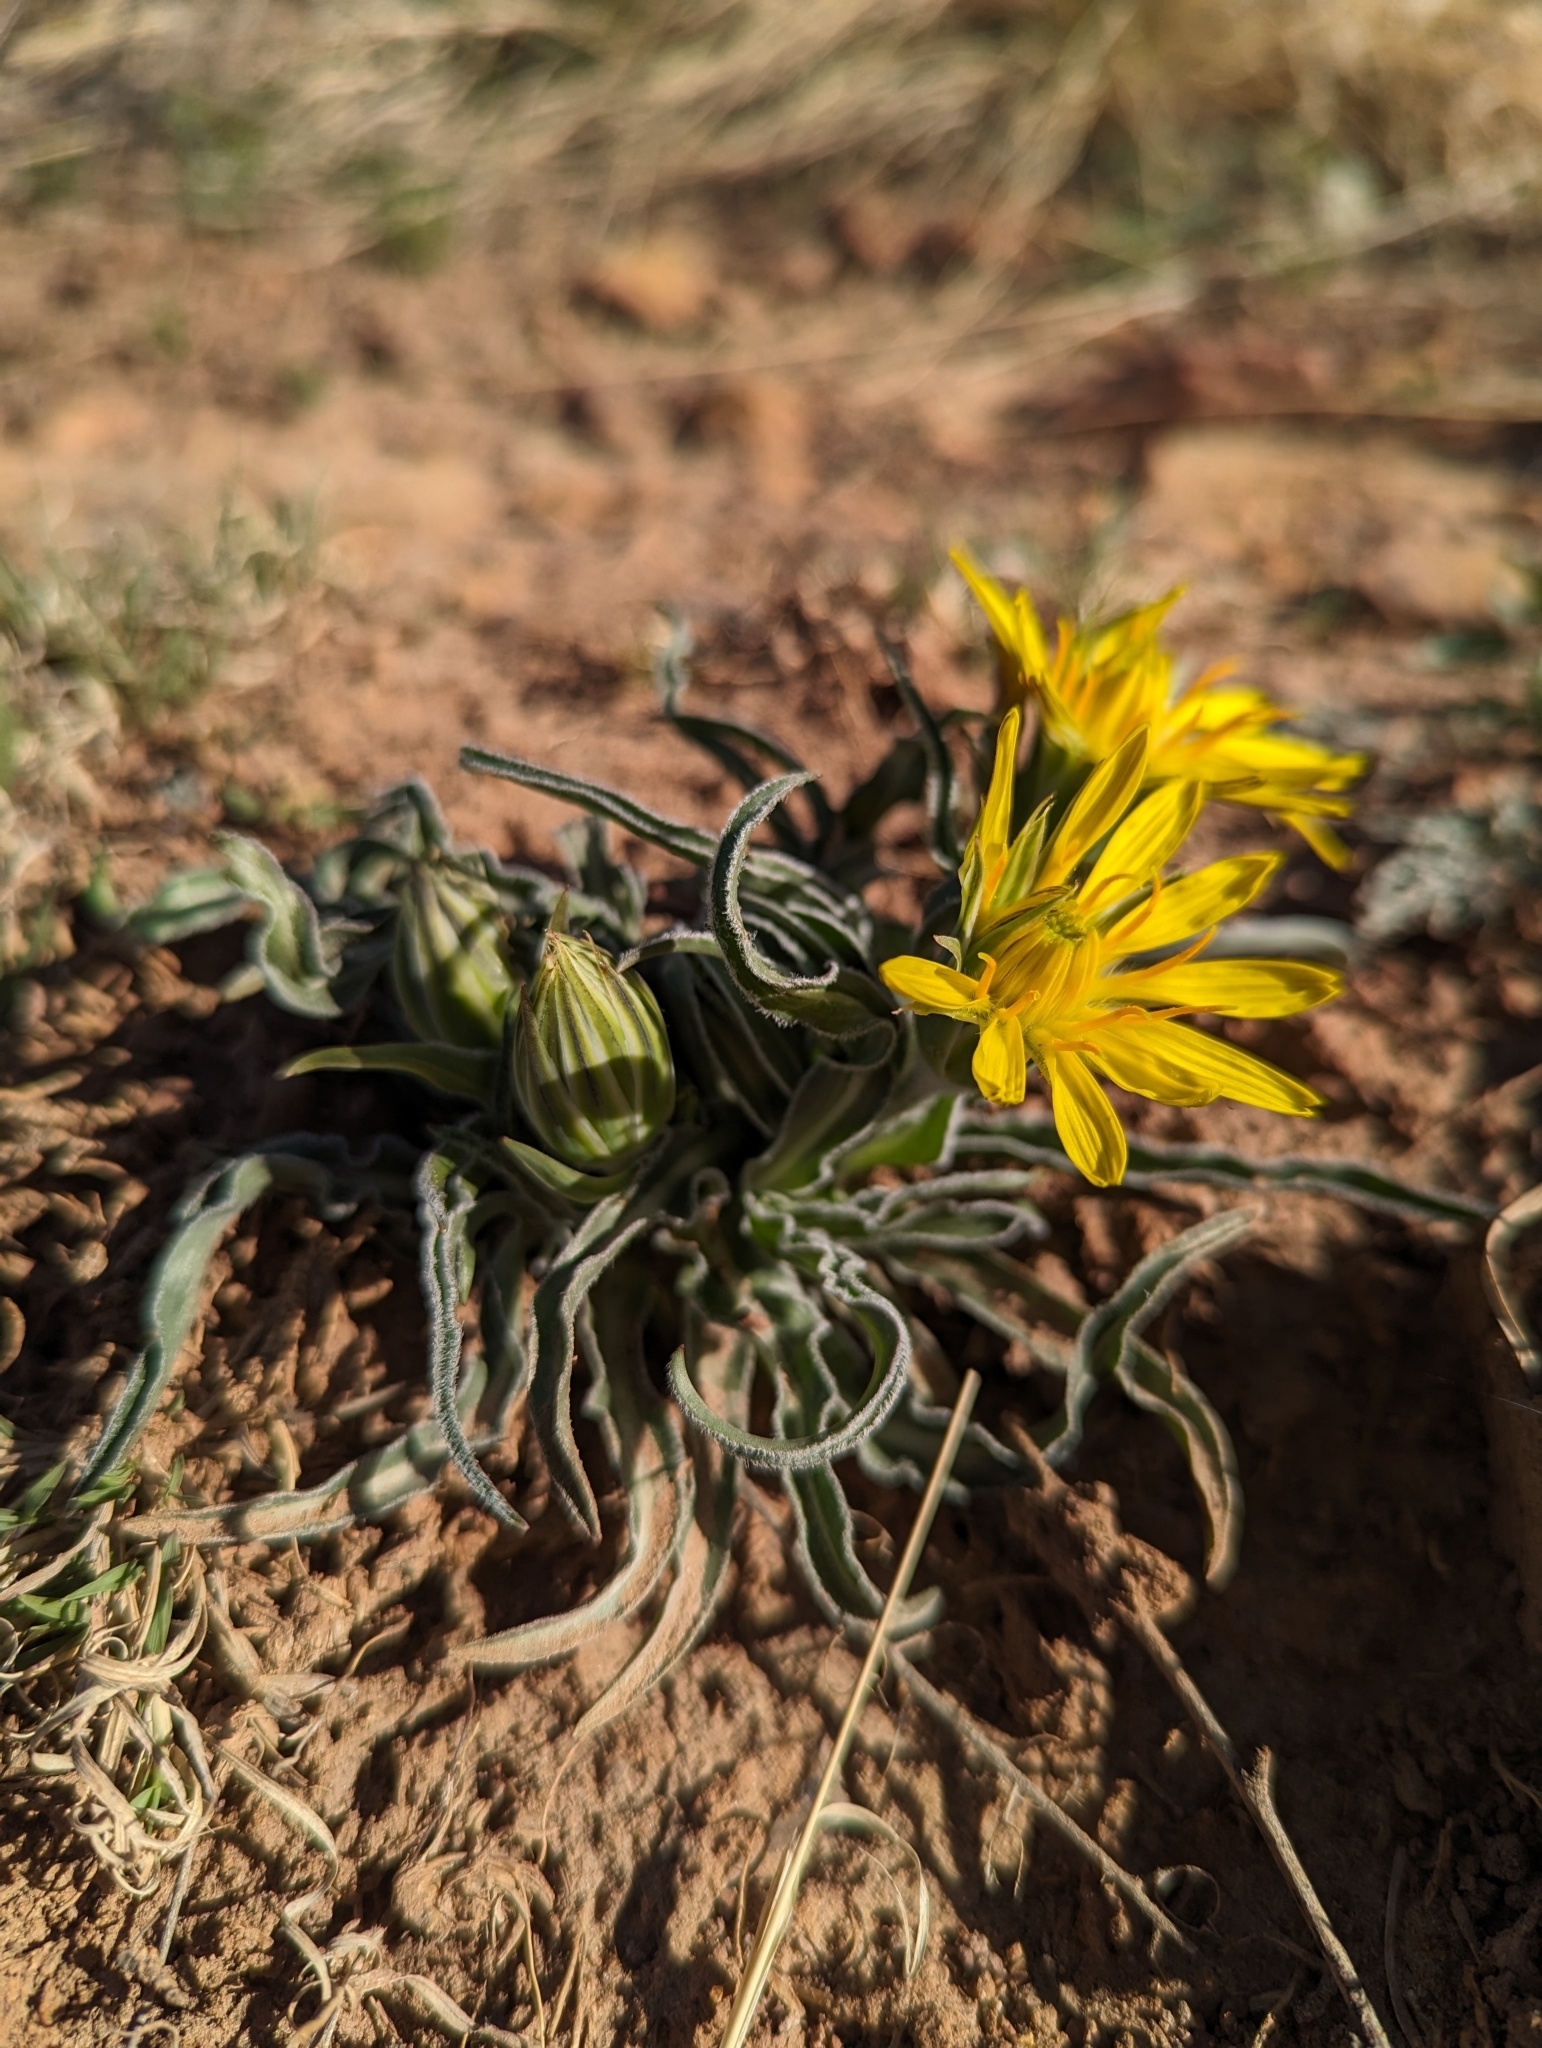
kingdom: Plantae
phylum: Tracheophyta
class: Magnoliopsida
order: Asterales
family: Asteraceae
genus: Microseris
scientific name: Microseris cuspidata
